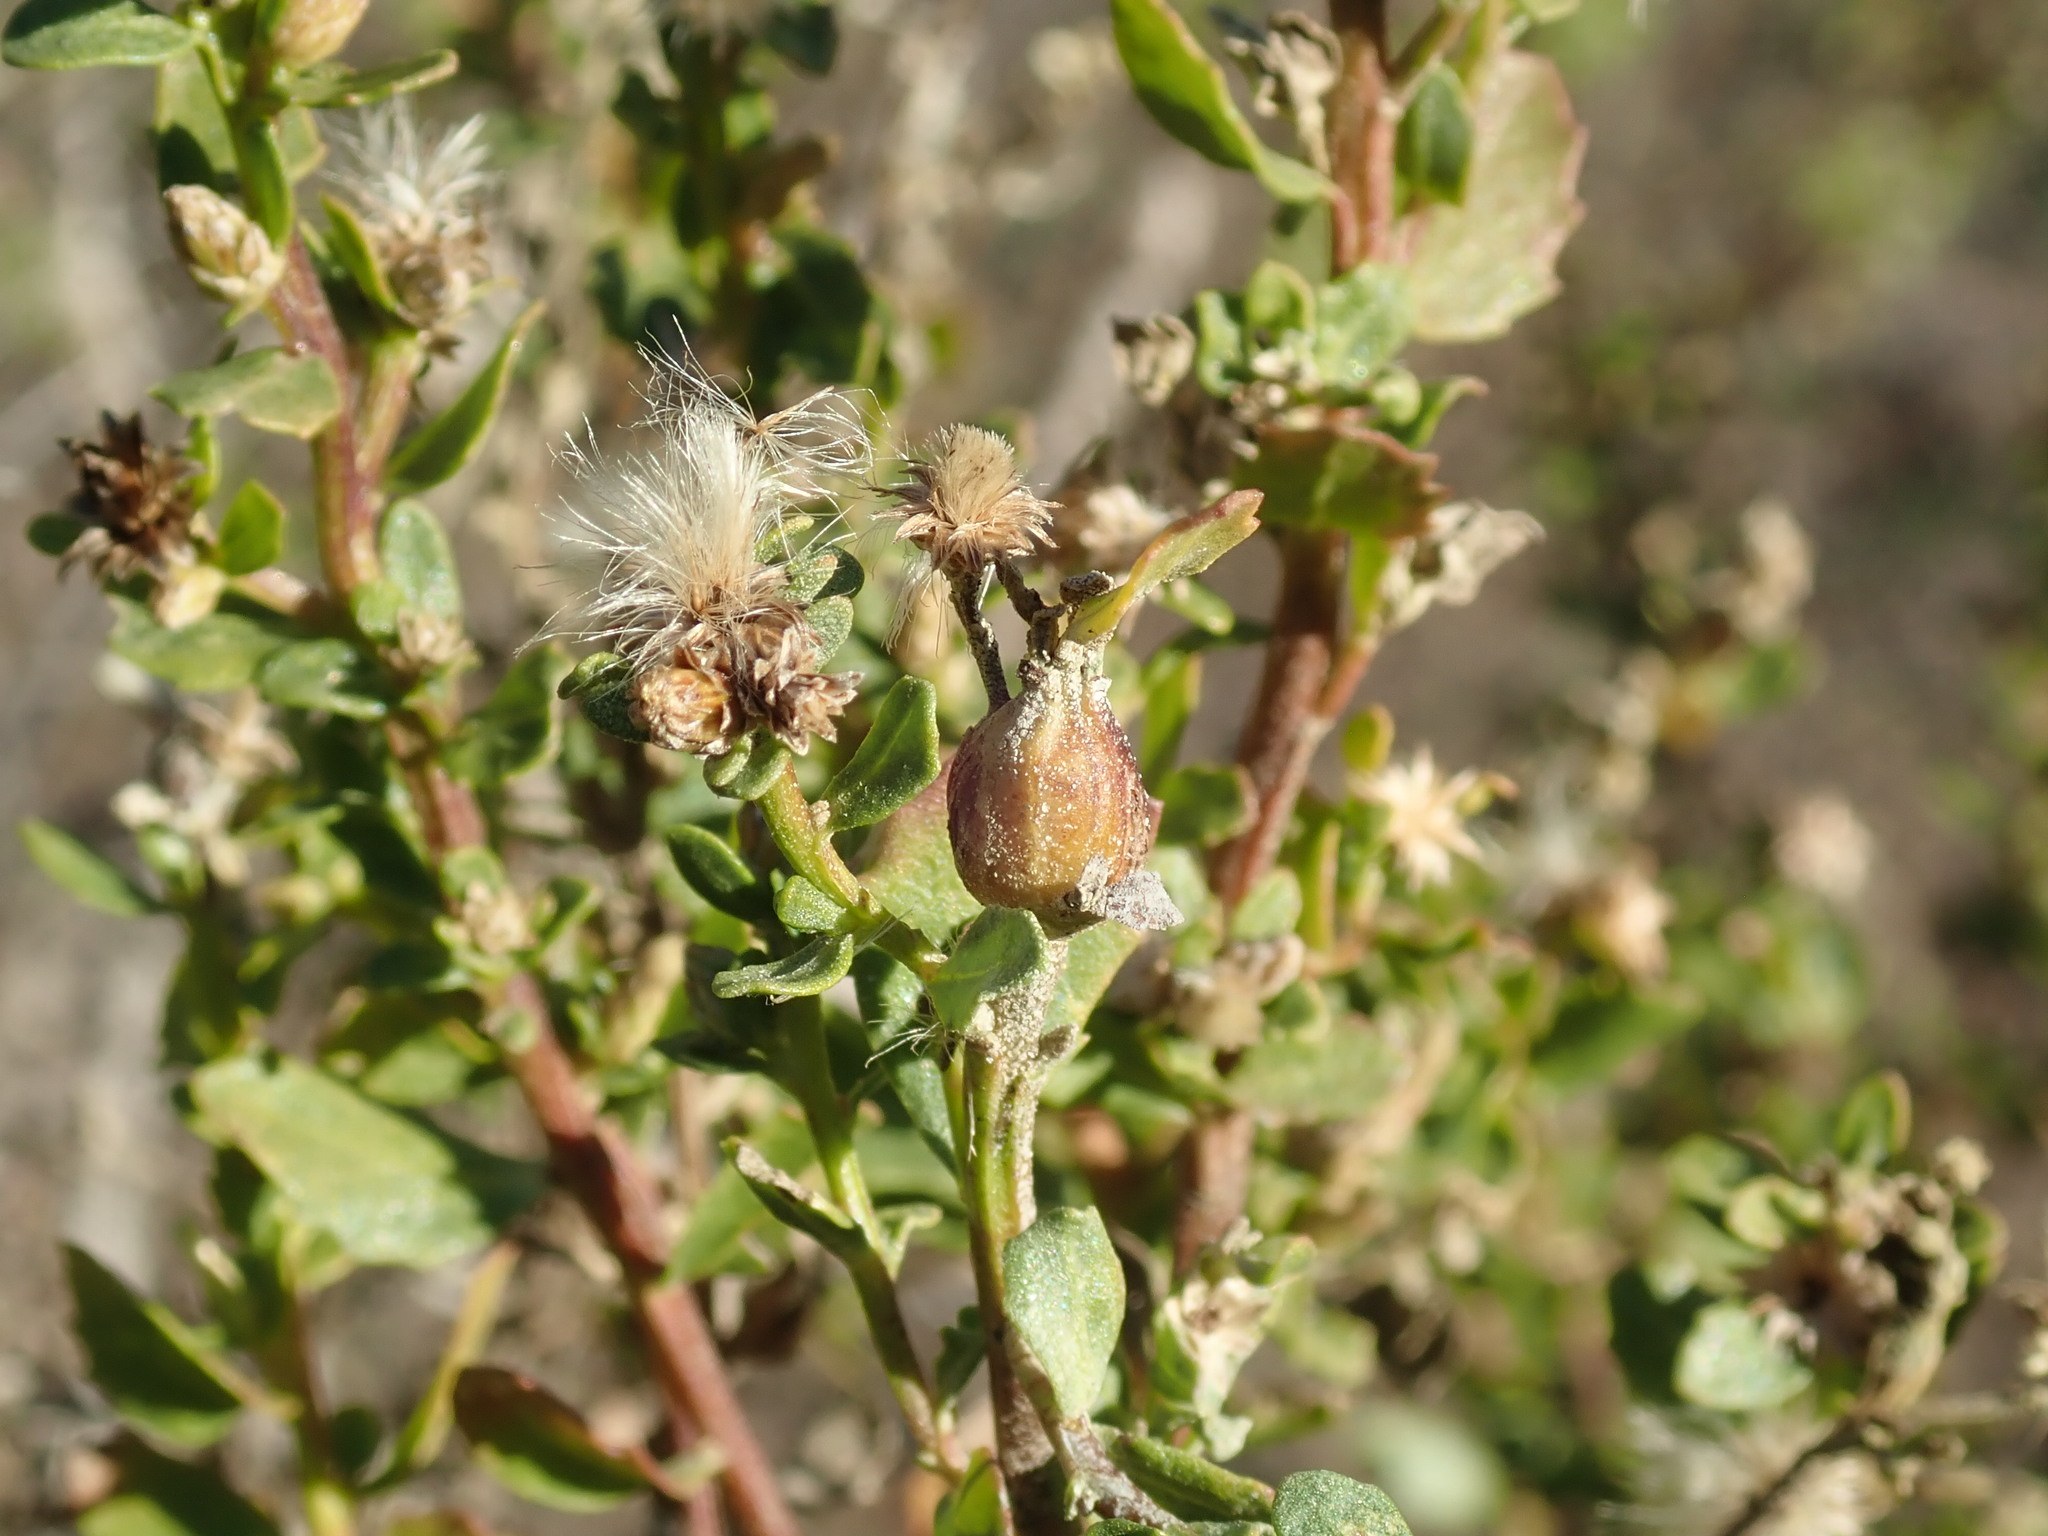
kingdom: Animalia
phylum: Arthropoda
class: Insecta
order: Lepidoptera
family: Gelechiidae
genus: Gnorimoschema
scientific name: Gnorimoschema baccharisella
